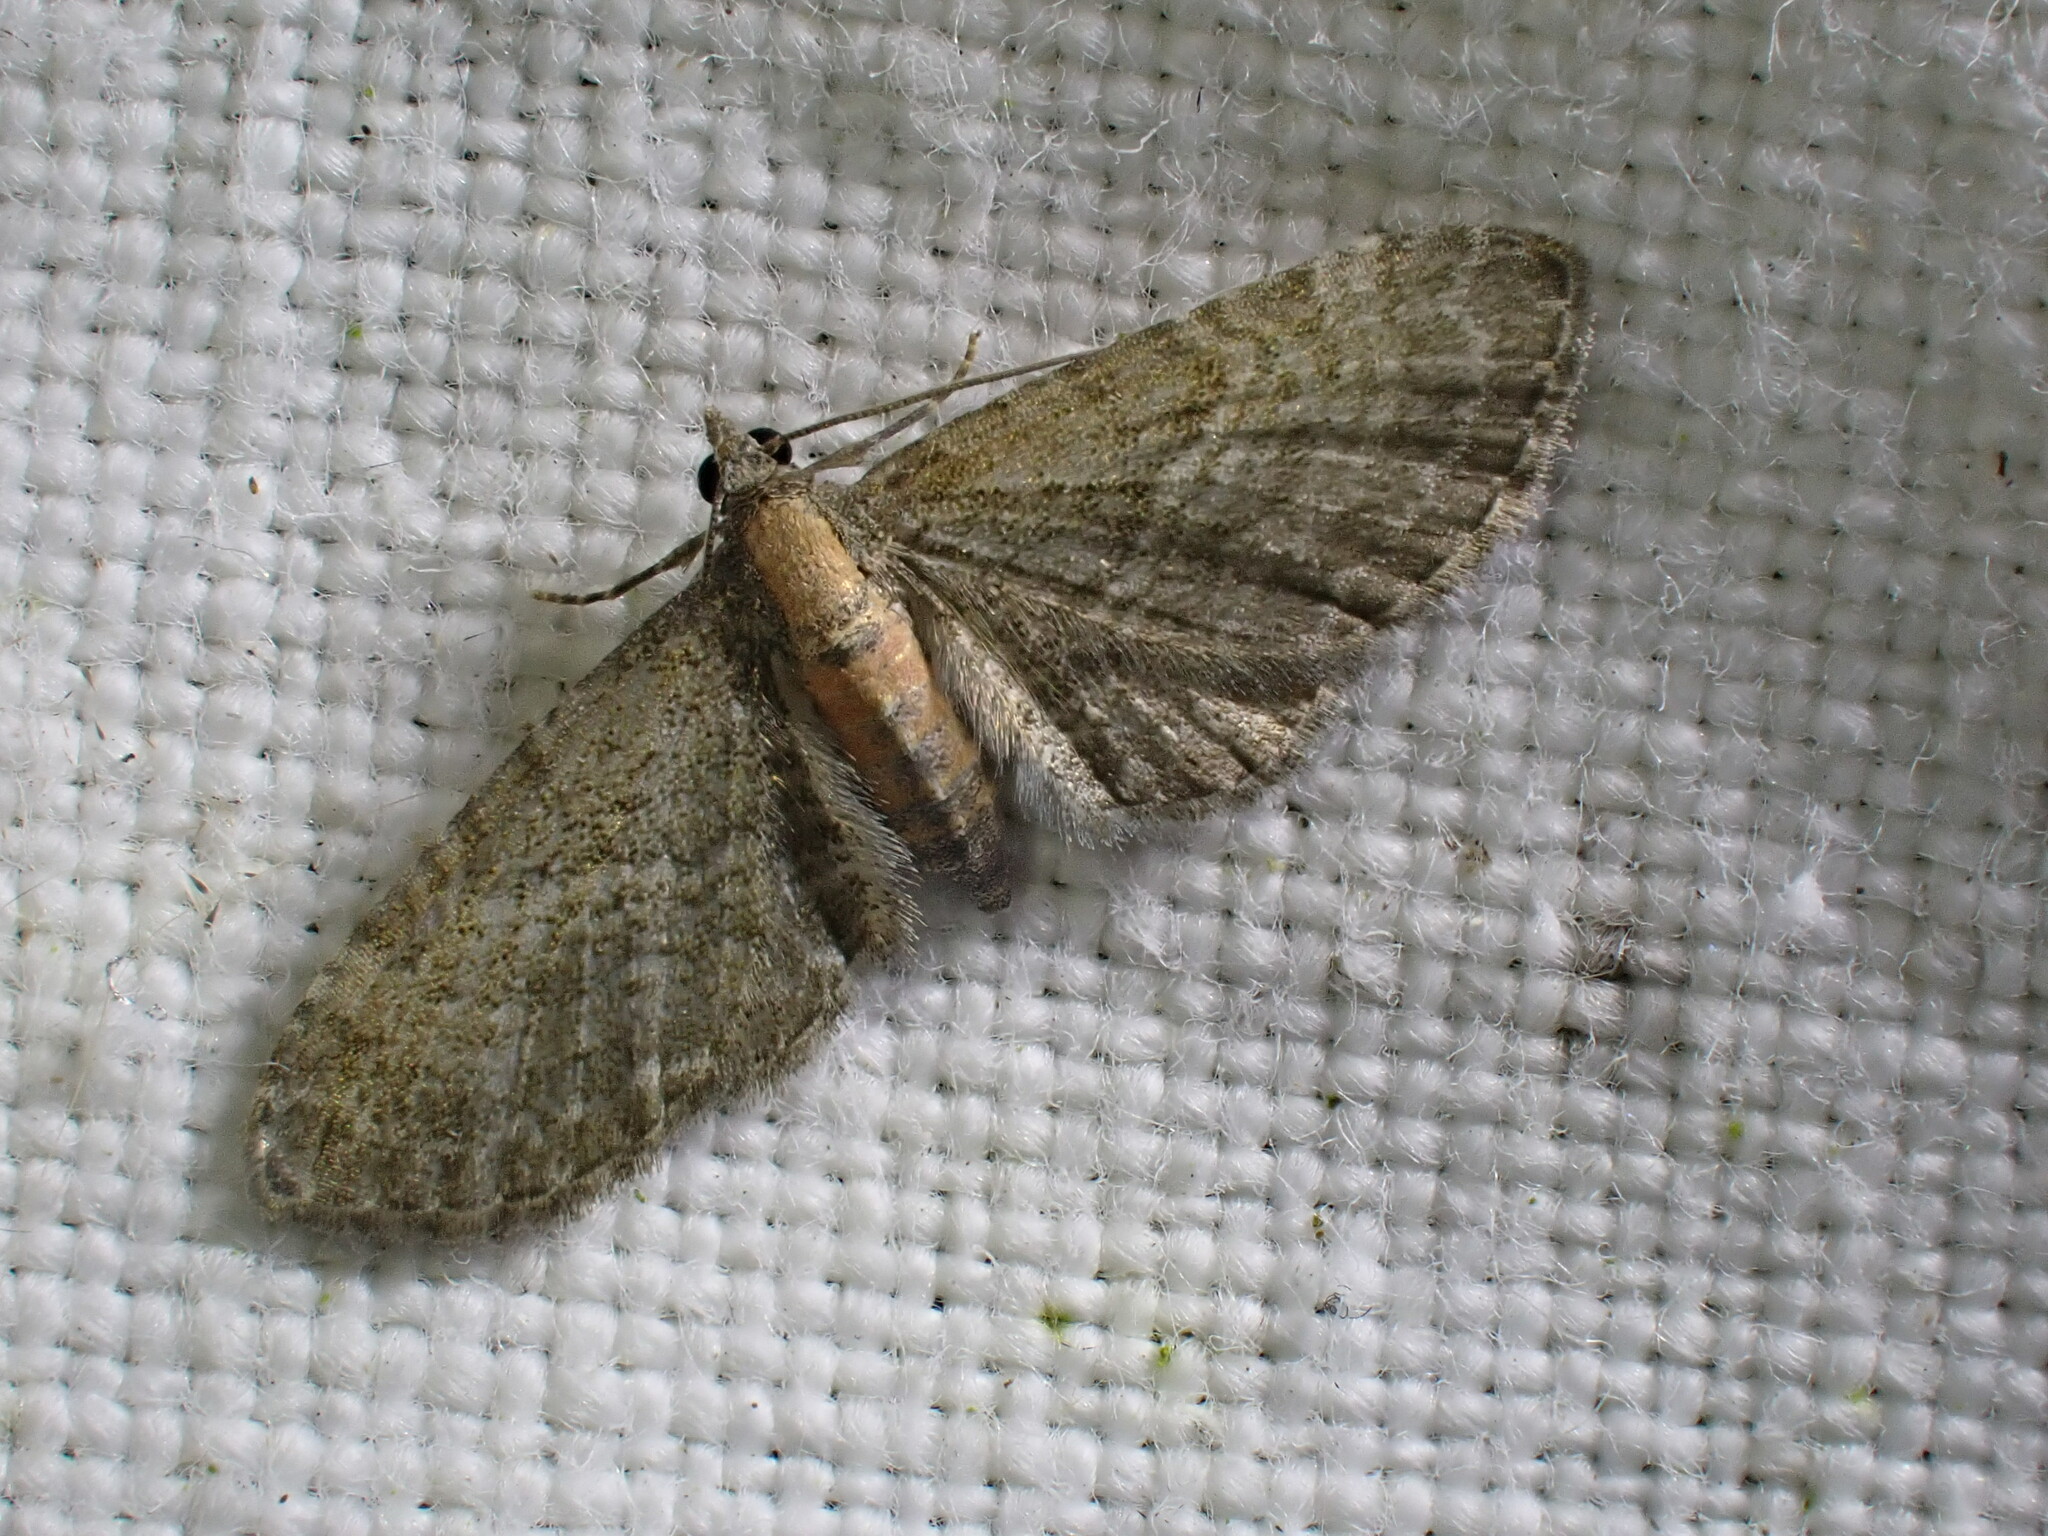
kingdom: Animalia
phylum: Arthropoda
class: Insecta
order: Lepidoptera
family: Geometridae
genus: Eupithecia
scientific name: Eupithecia haworthiata
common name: Haworth's pug
